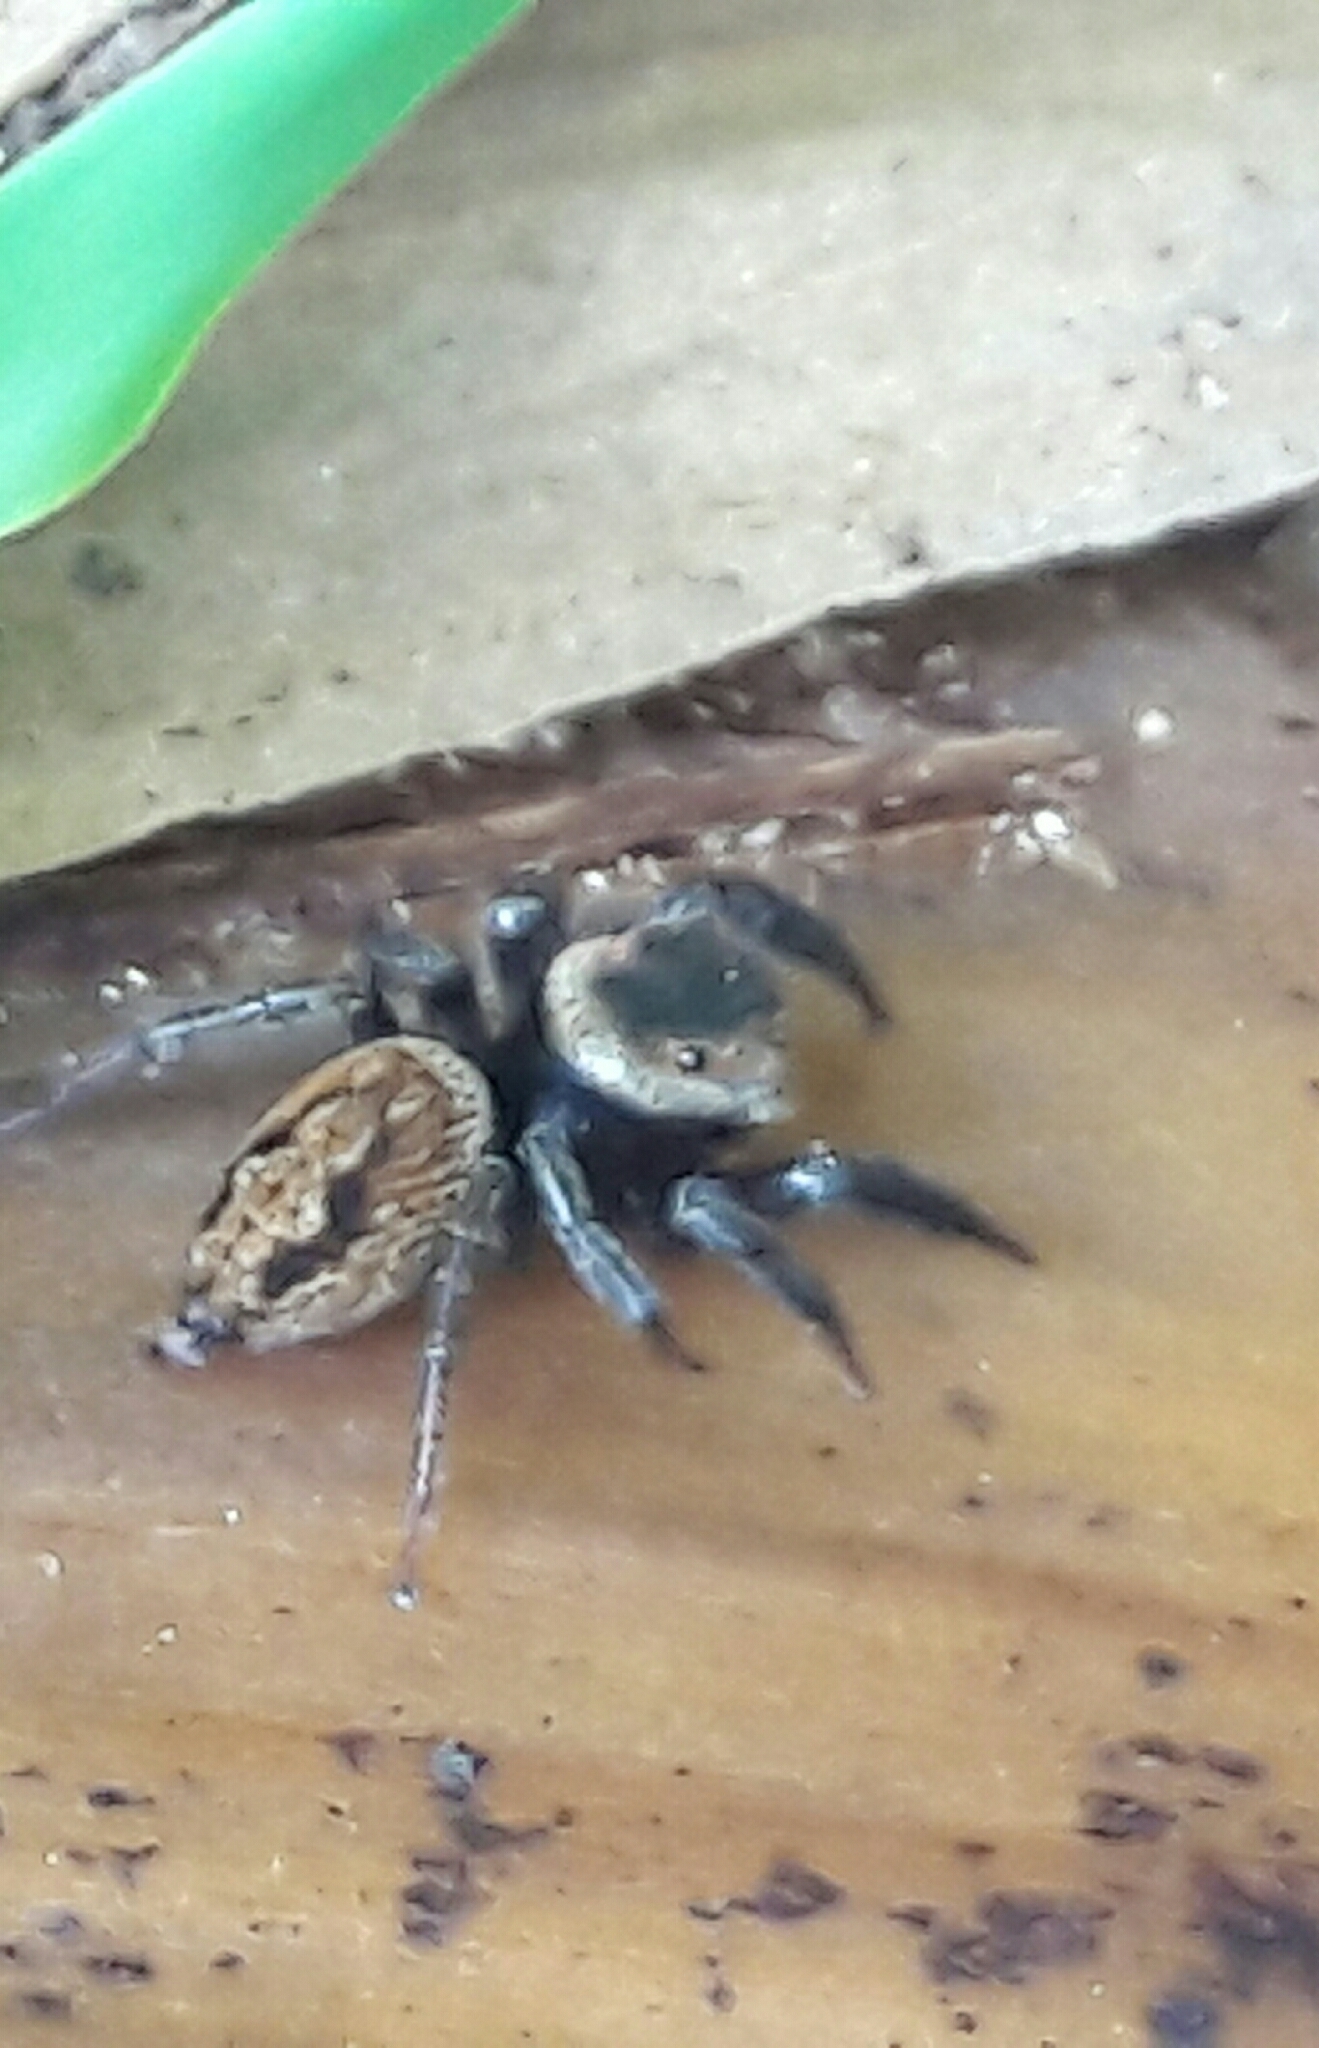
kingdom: Animalia
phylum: Arthropoda
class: Arachnida
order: Araneae
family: Salticidae
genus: Hasarius
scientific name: Hasarius adansoni
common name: Jumping spider
